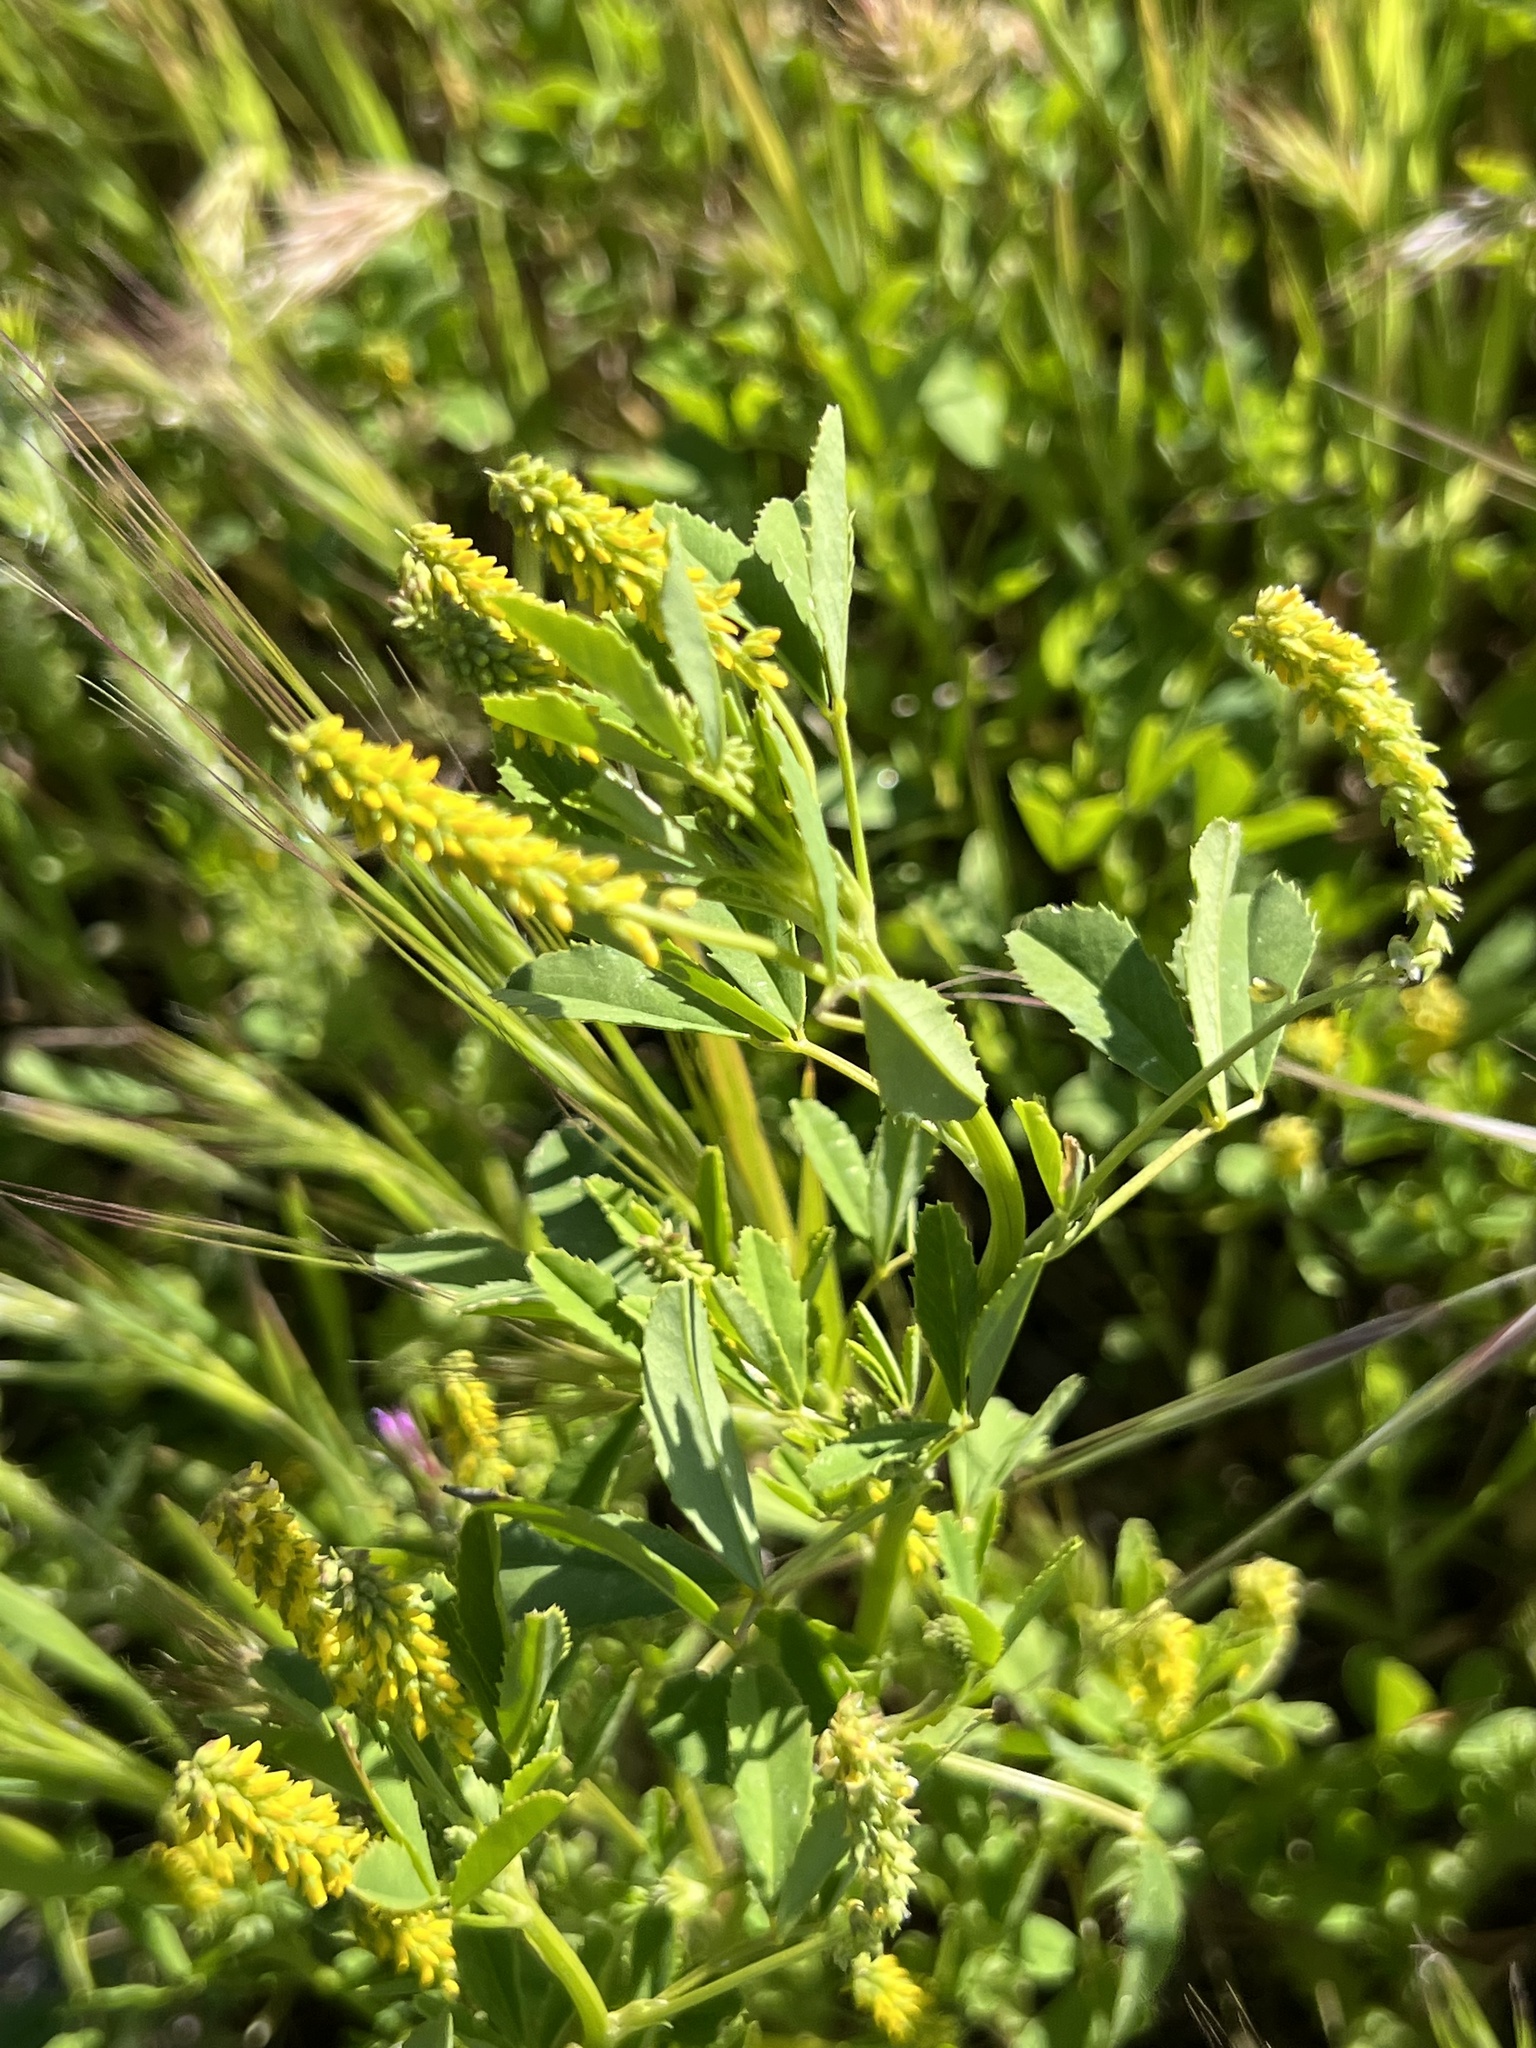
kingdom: Plantae
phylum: Tracheophyta
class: Magnoliopsida
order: Fabales
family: Fabaceae
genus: Melilotus
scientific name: Melilotus indicus
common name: Small melilot
